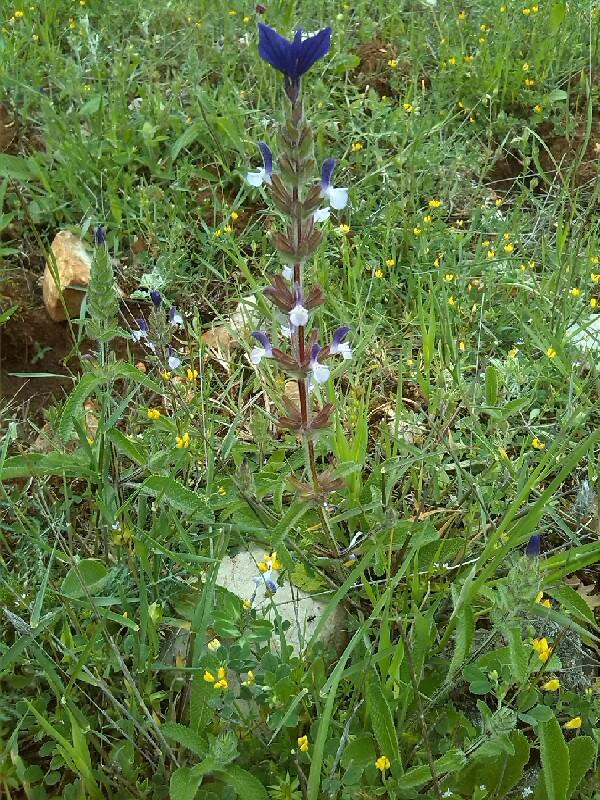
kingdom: Plantae
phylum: Tracheophyta
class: Magnoliopsida
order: Lamiales
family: Lamiaceae
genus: Salvia
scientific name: Salvia viridis
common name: Annual clary
